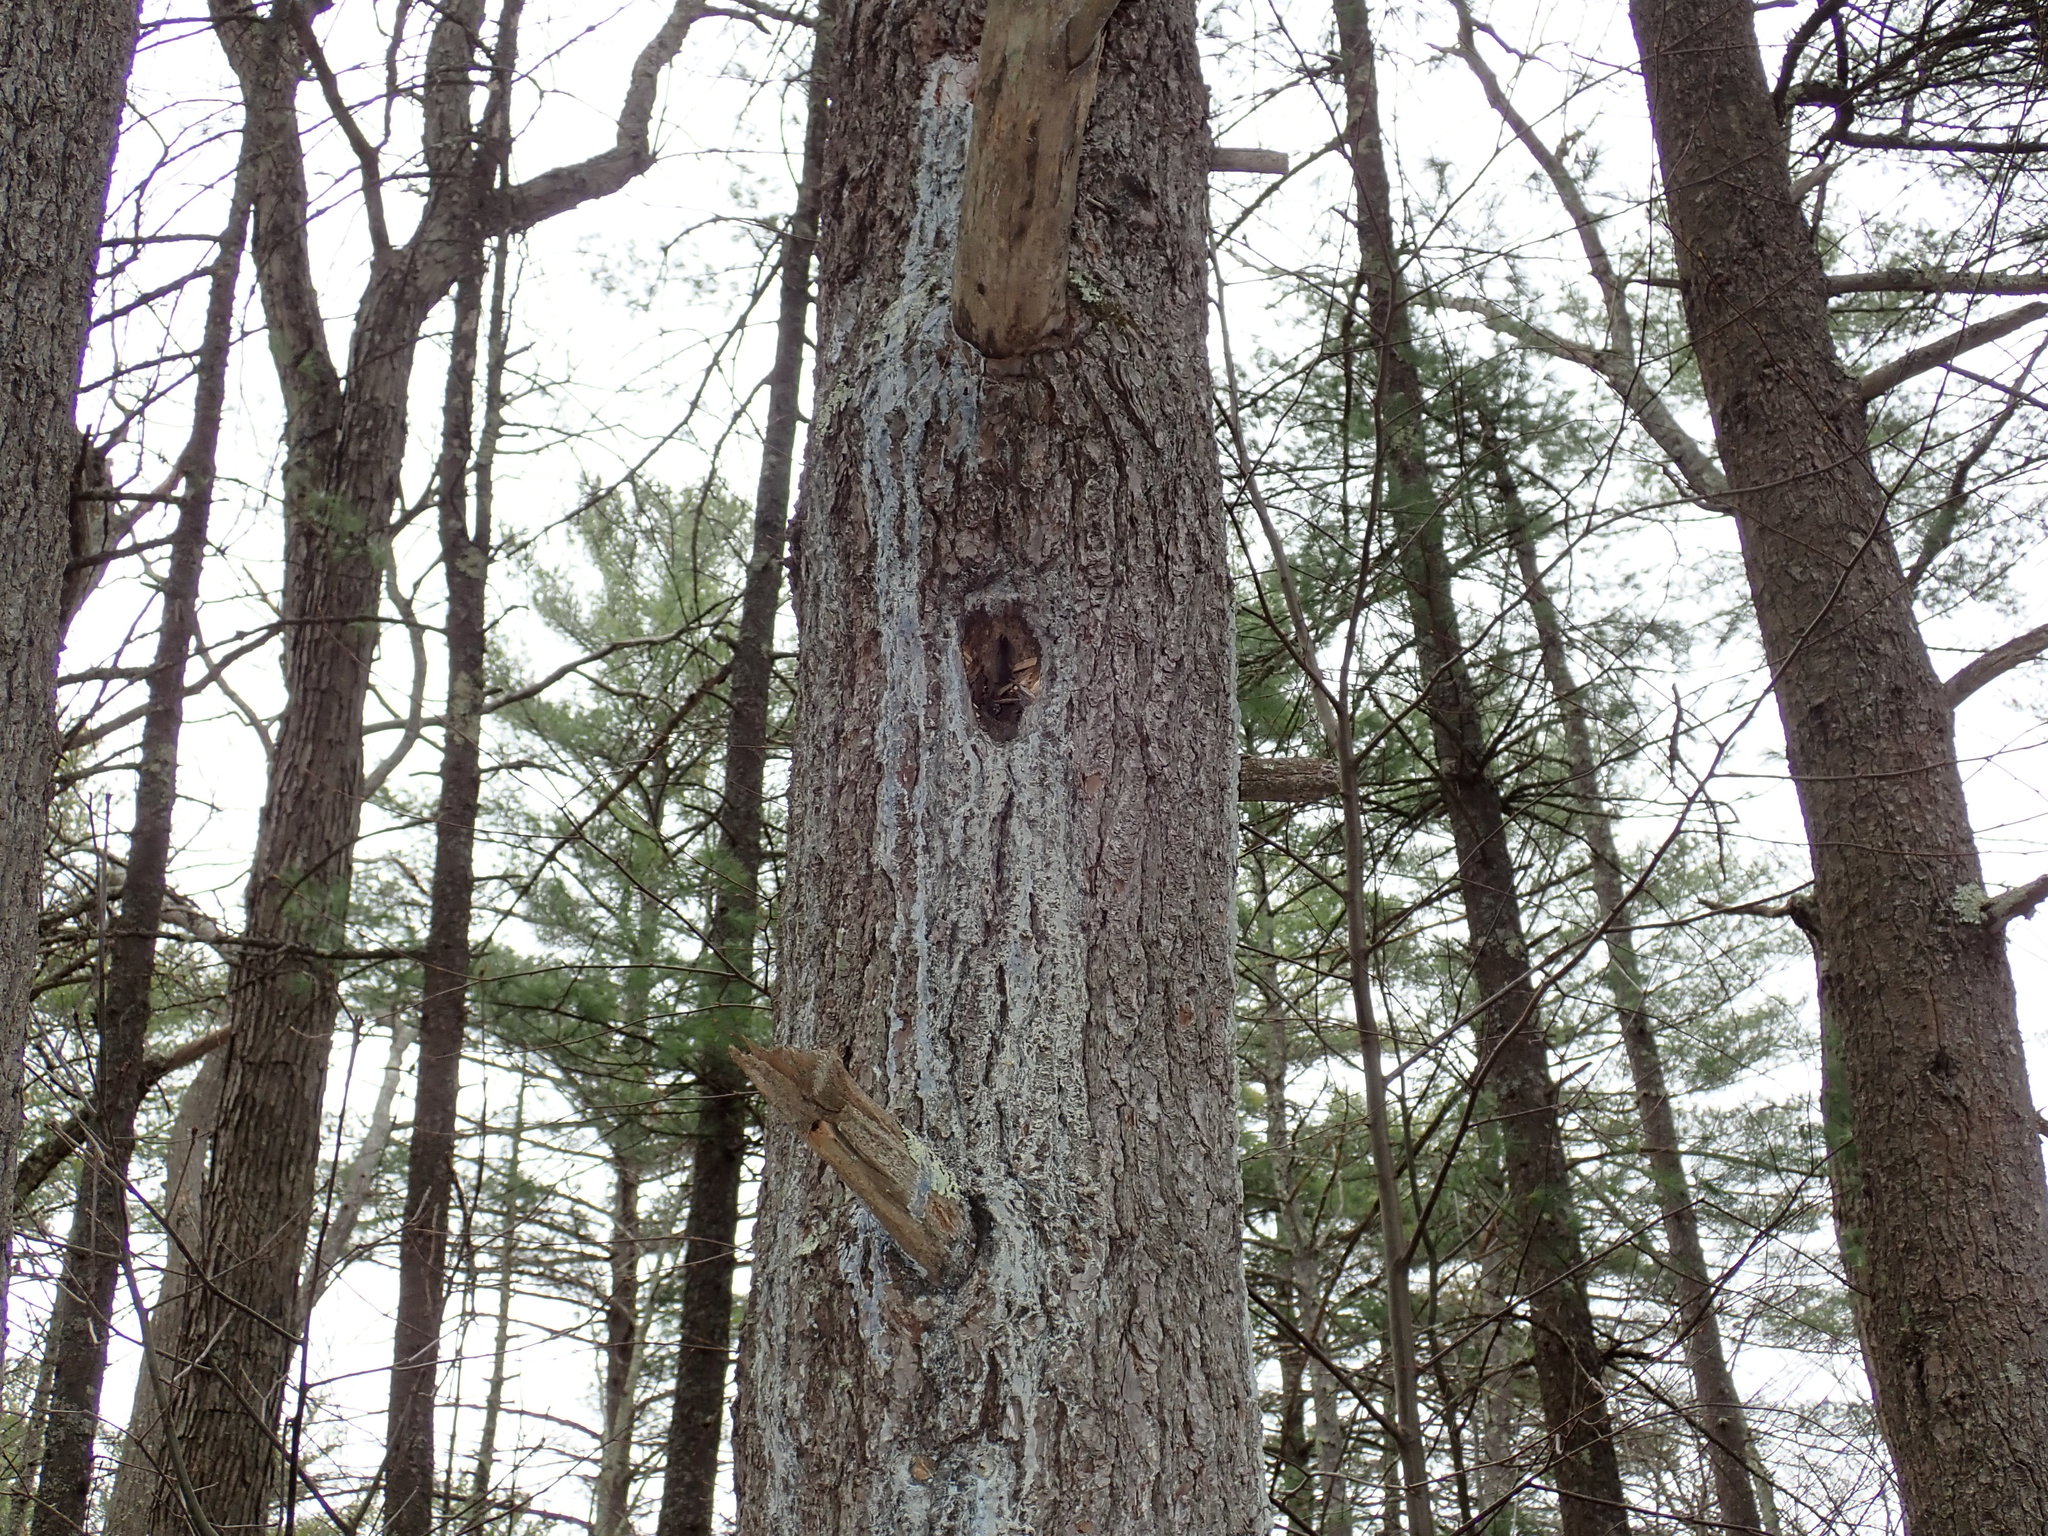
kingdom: Animalia
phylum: Chordata
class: Aves
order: Piciformes
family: Picidae
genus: Dryocopus
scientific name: Dryocopus pileatus
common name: Pileated woodpecker
